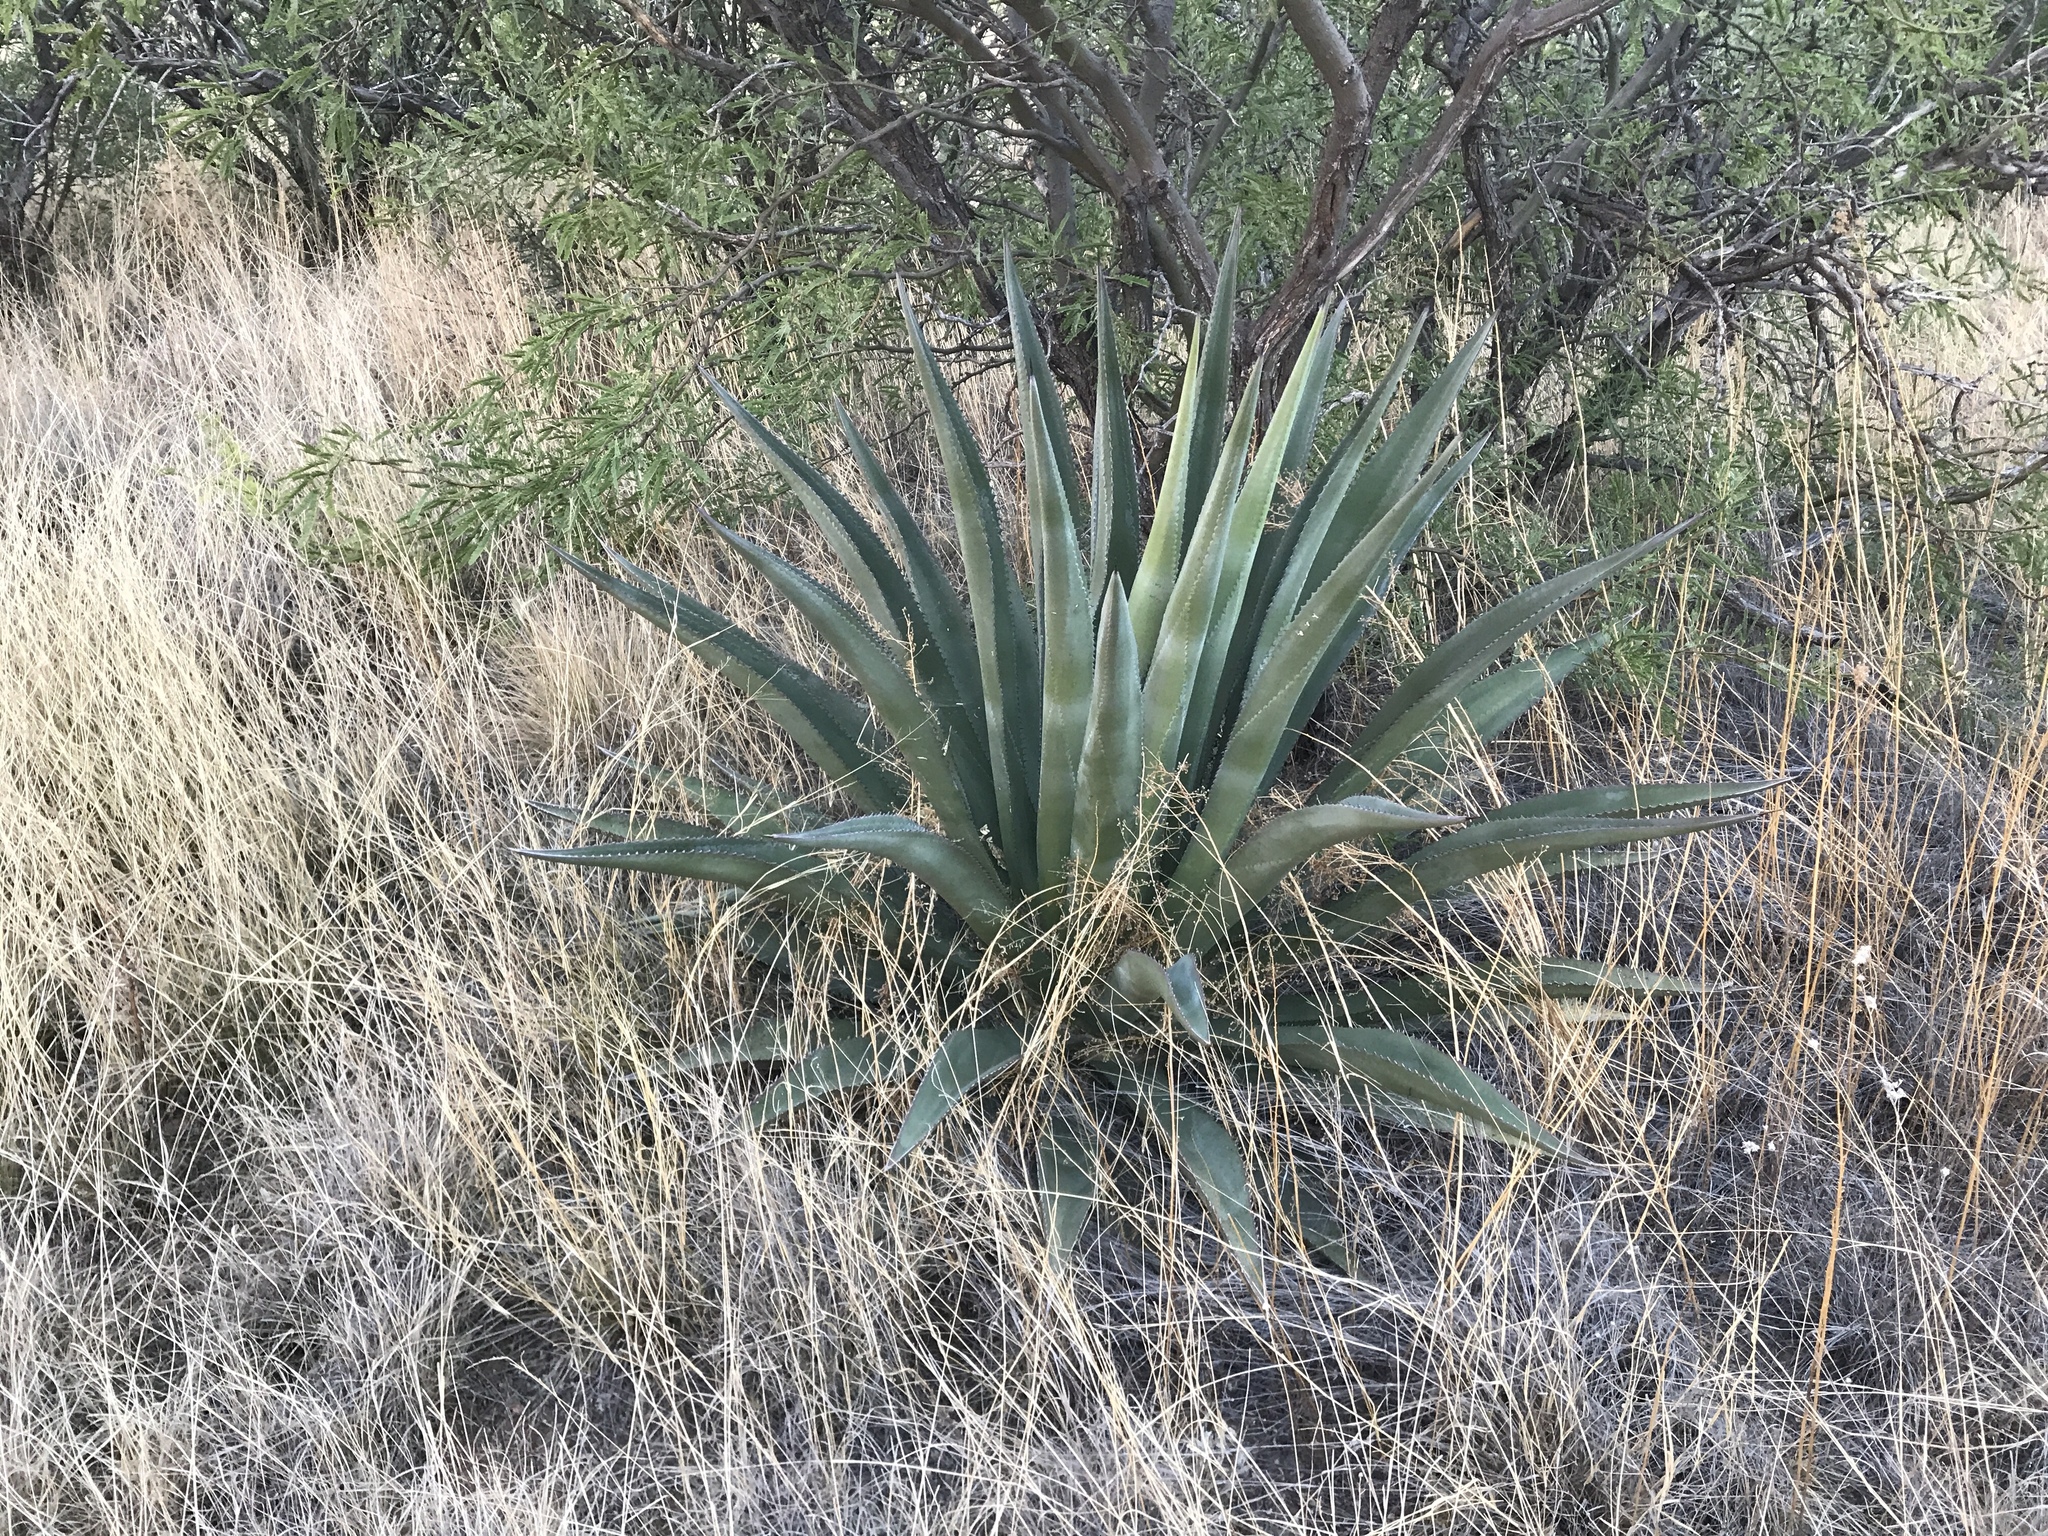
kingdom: Plantae
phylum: Tracheophyta
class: Liliopsida
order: Asparagales
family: Asparagaceae
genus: Agave
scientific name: Agave palmeri
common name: Palmer agave
